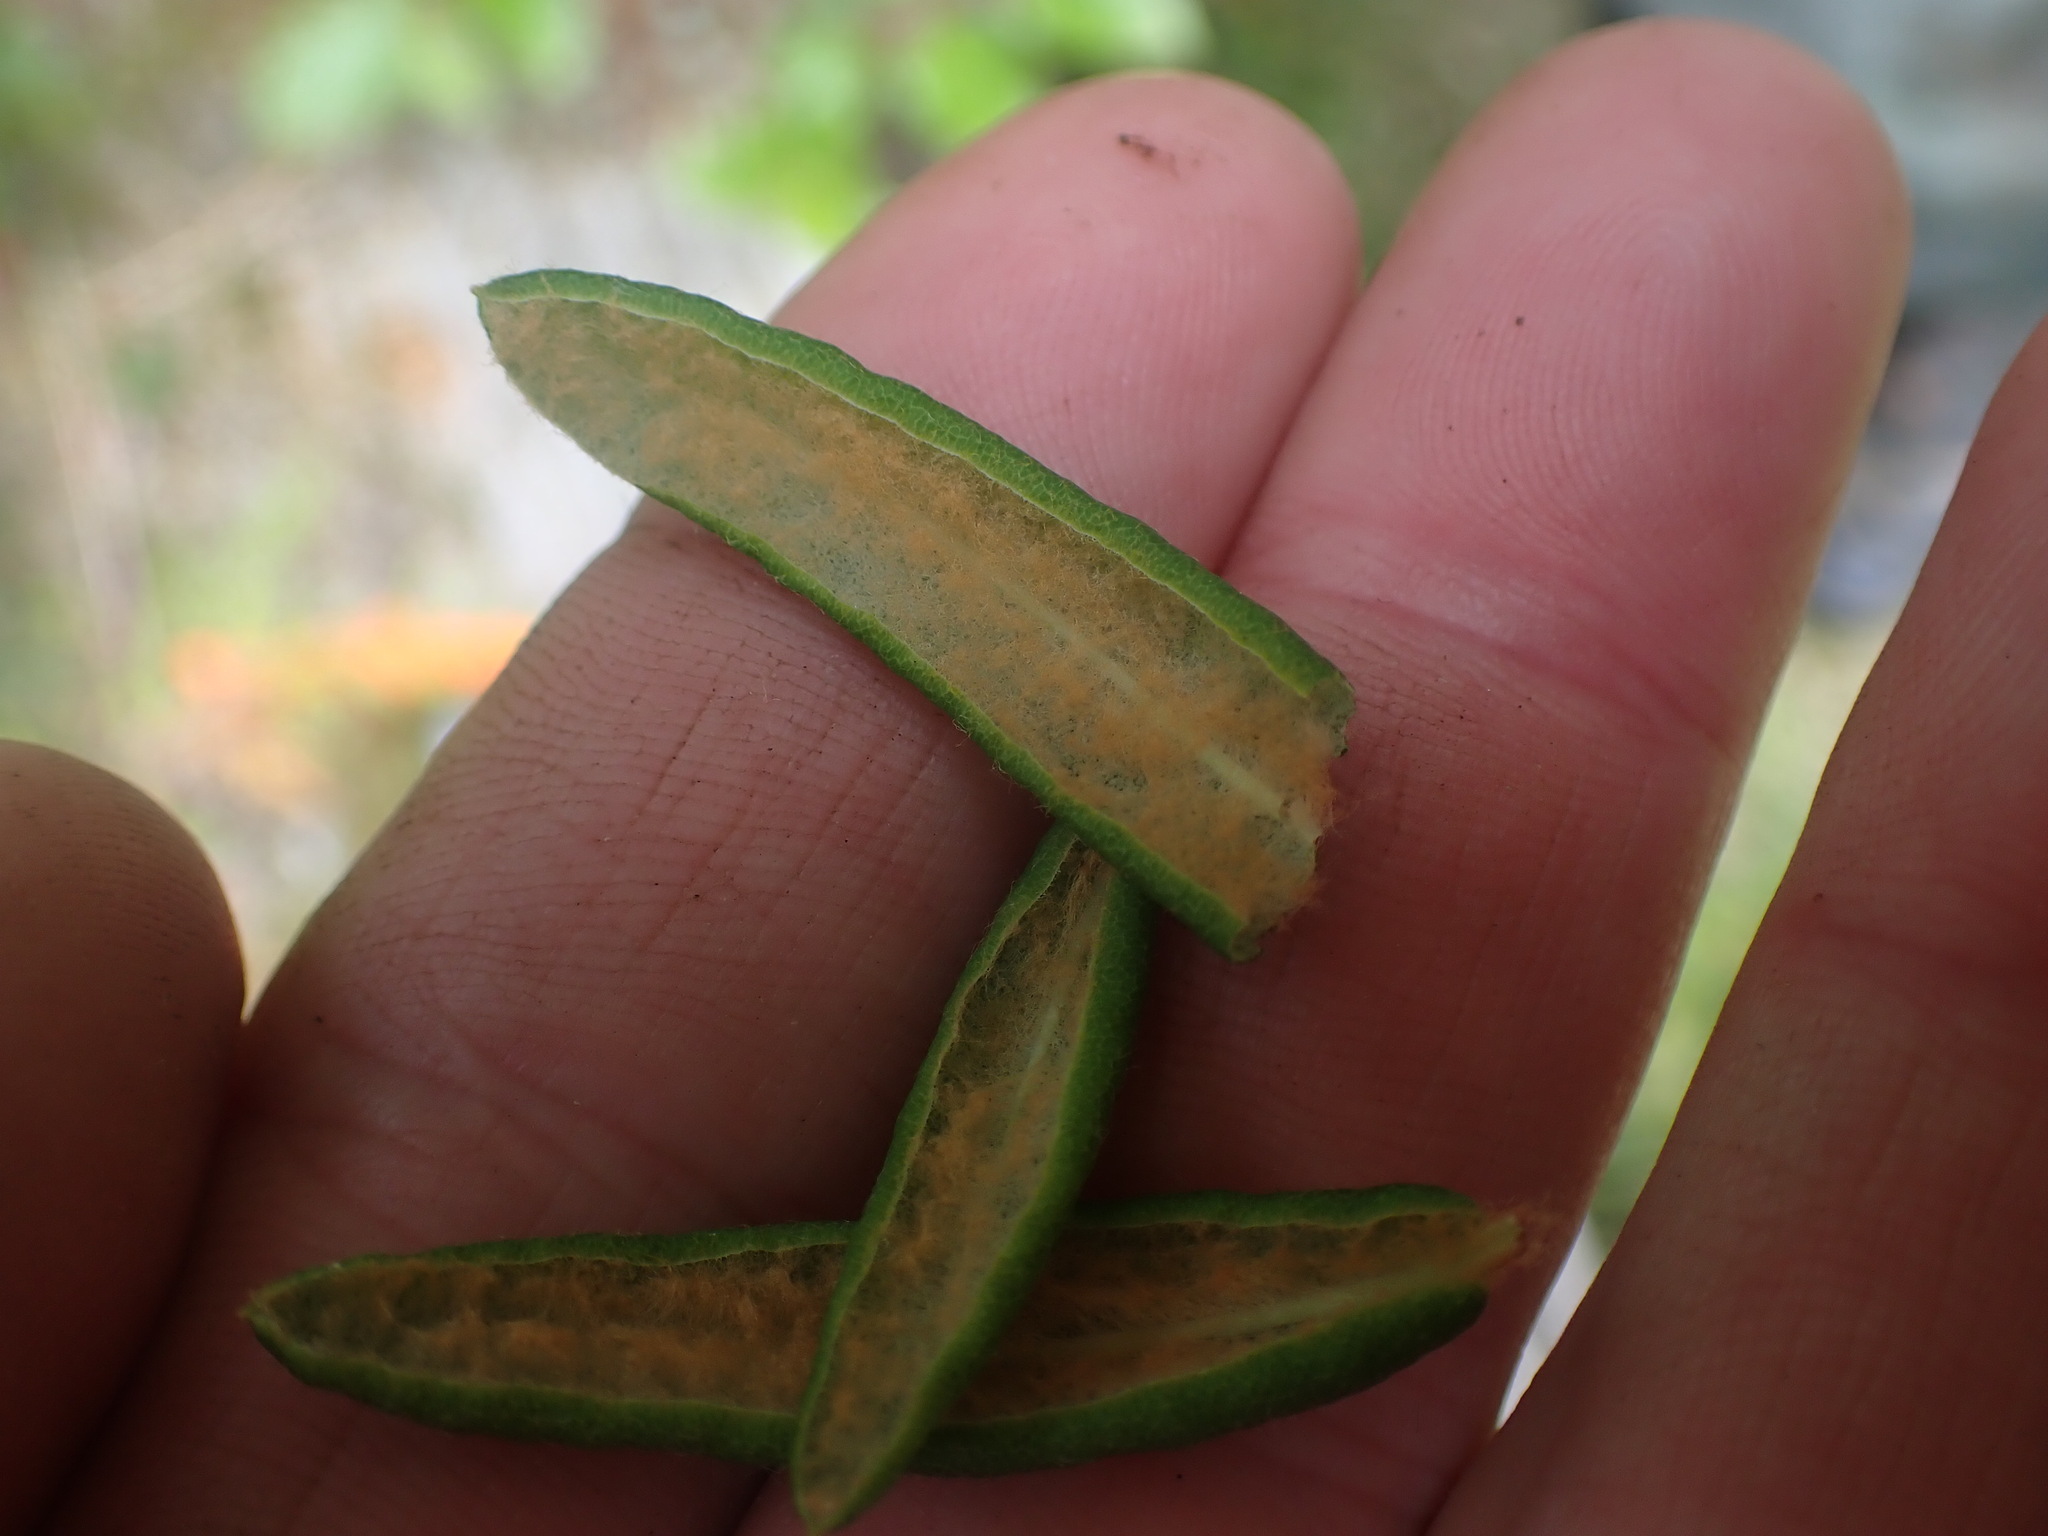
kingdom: Plantae
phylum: Tracheophyta
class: Magnoliopsida
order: Ericales
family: Ericaceae
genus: Rhododendron
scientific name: Rhododendron groenlandicum
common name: Bog labrador tea
